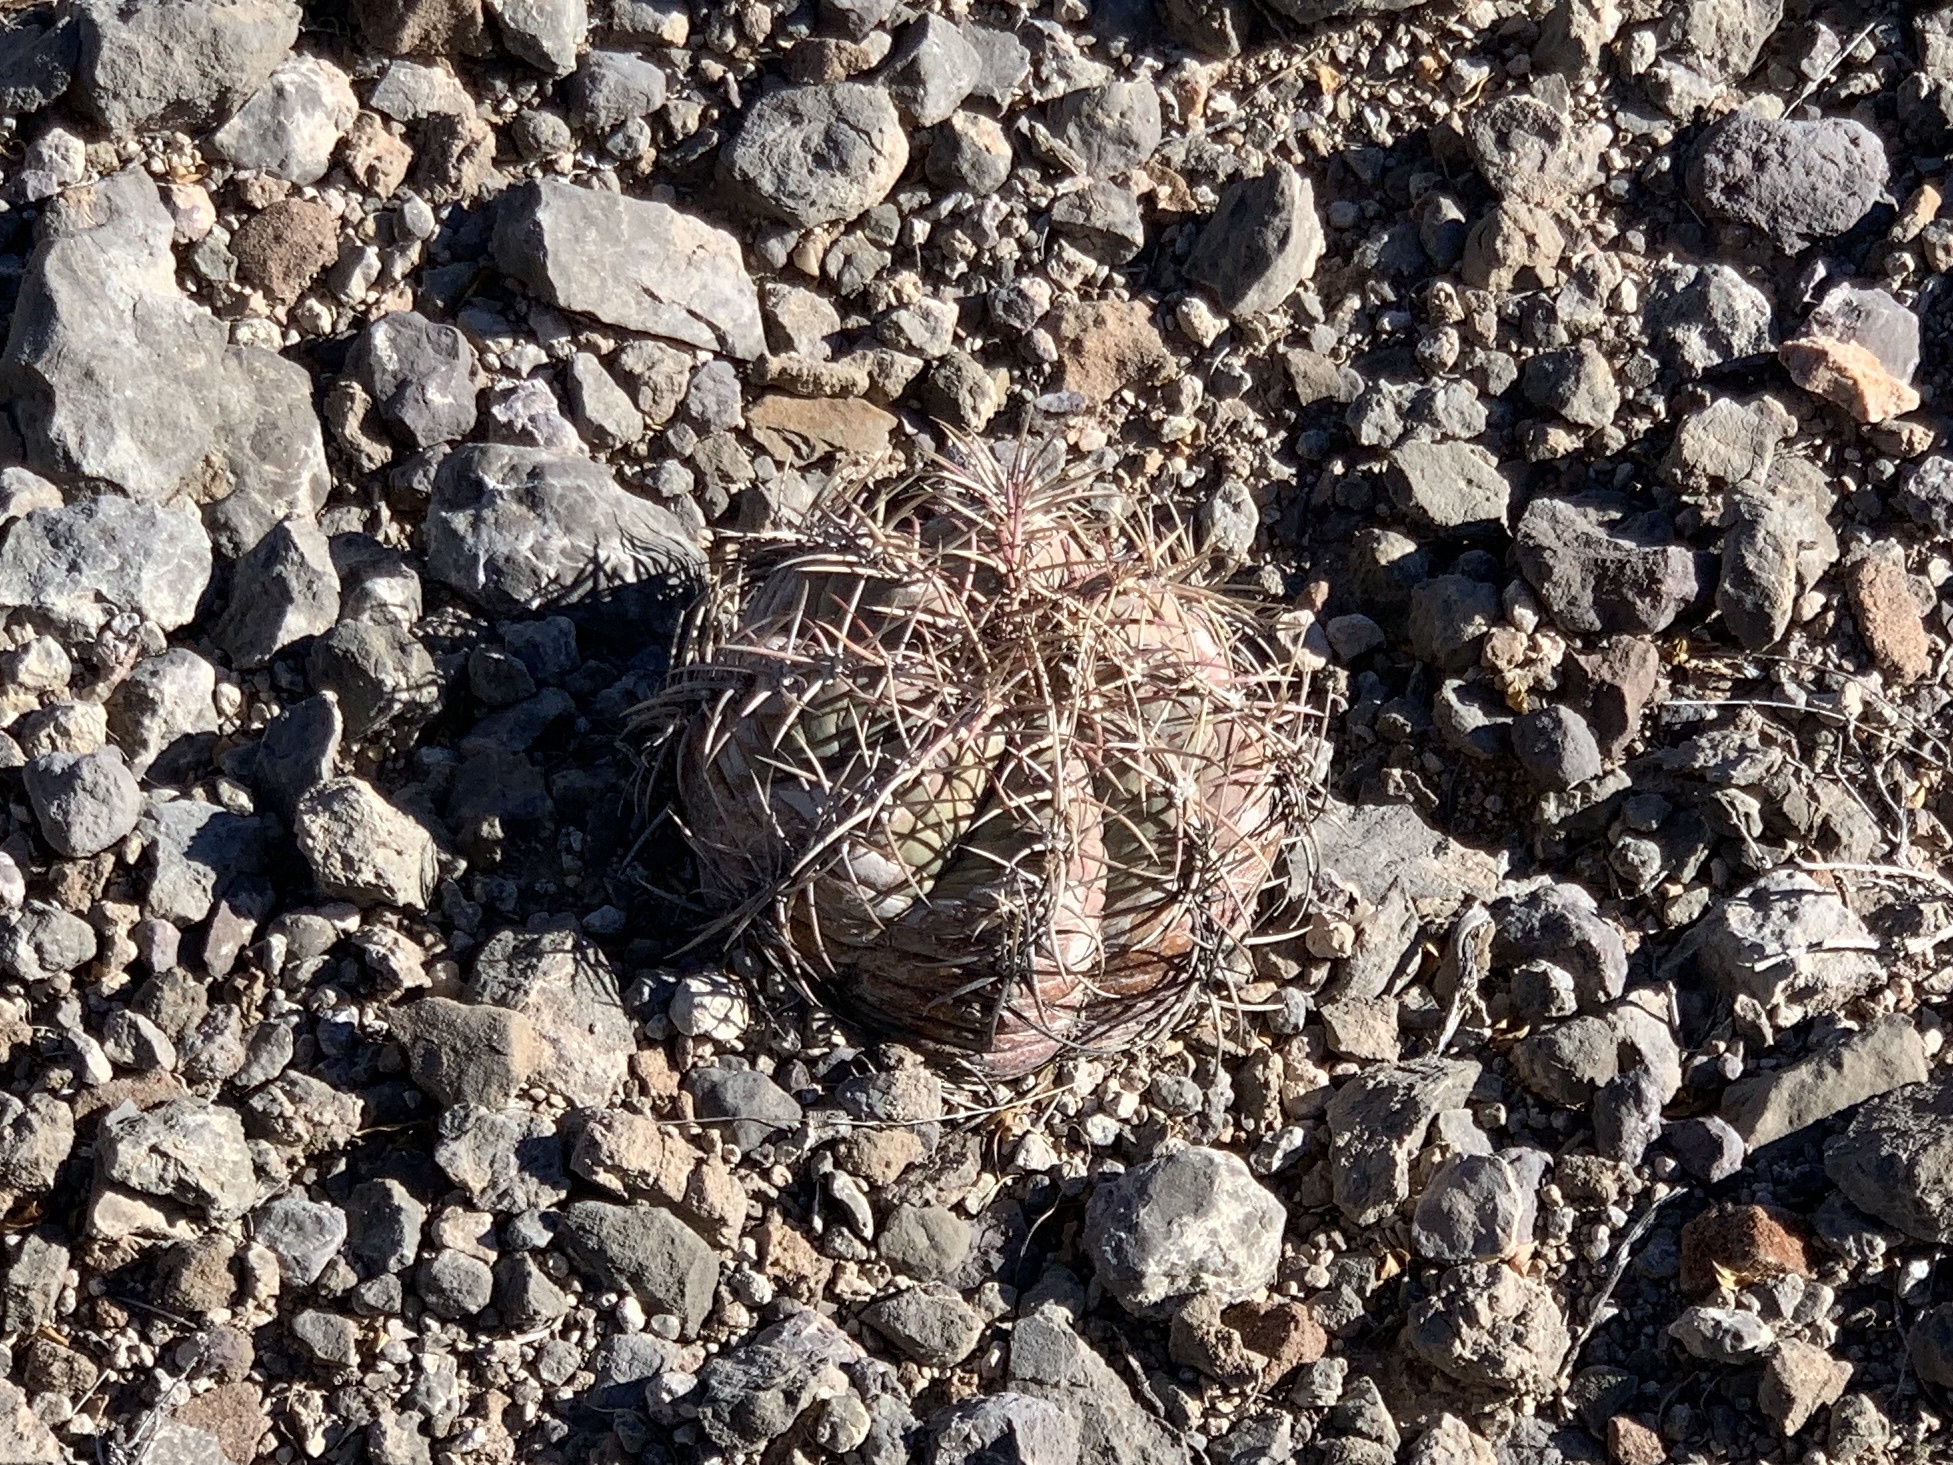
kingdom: Plantae
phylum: Tracheophyta
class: Magnoliopsida
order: Caryophyllales
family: Cactaceae
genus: Echinocactus
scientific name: Echinocactus horizonthalonius
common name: Devilshead
